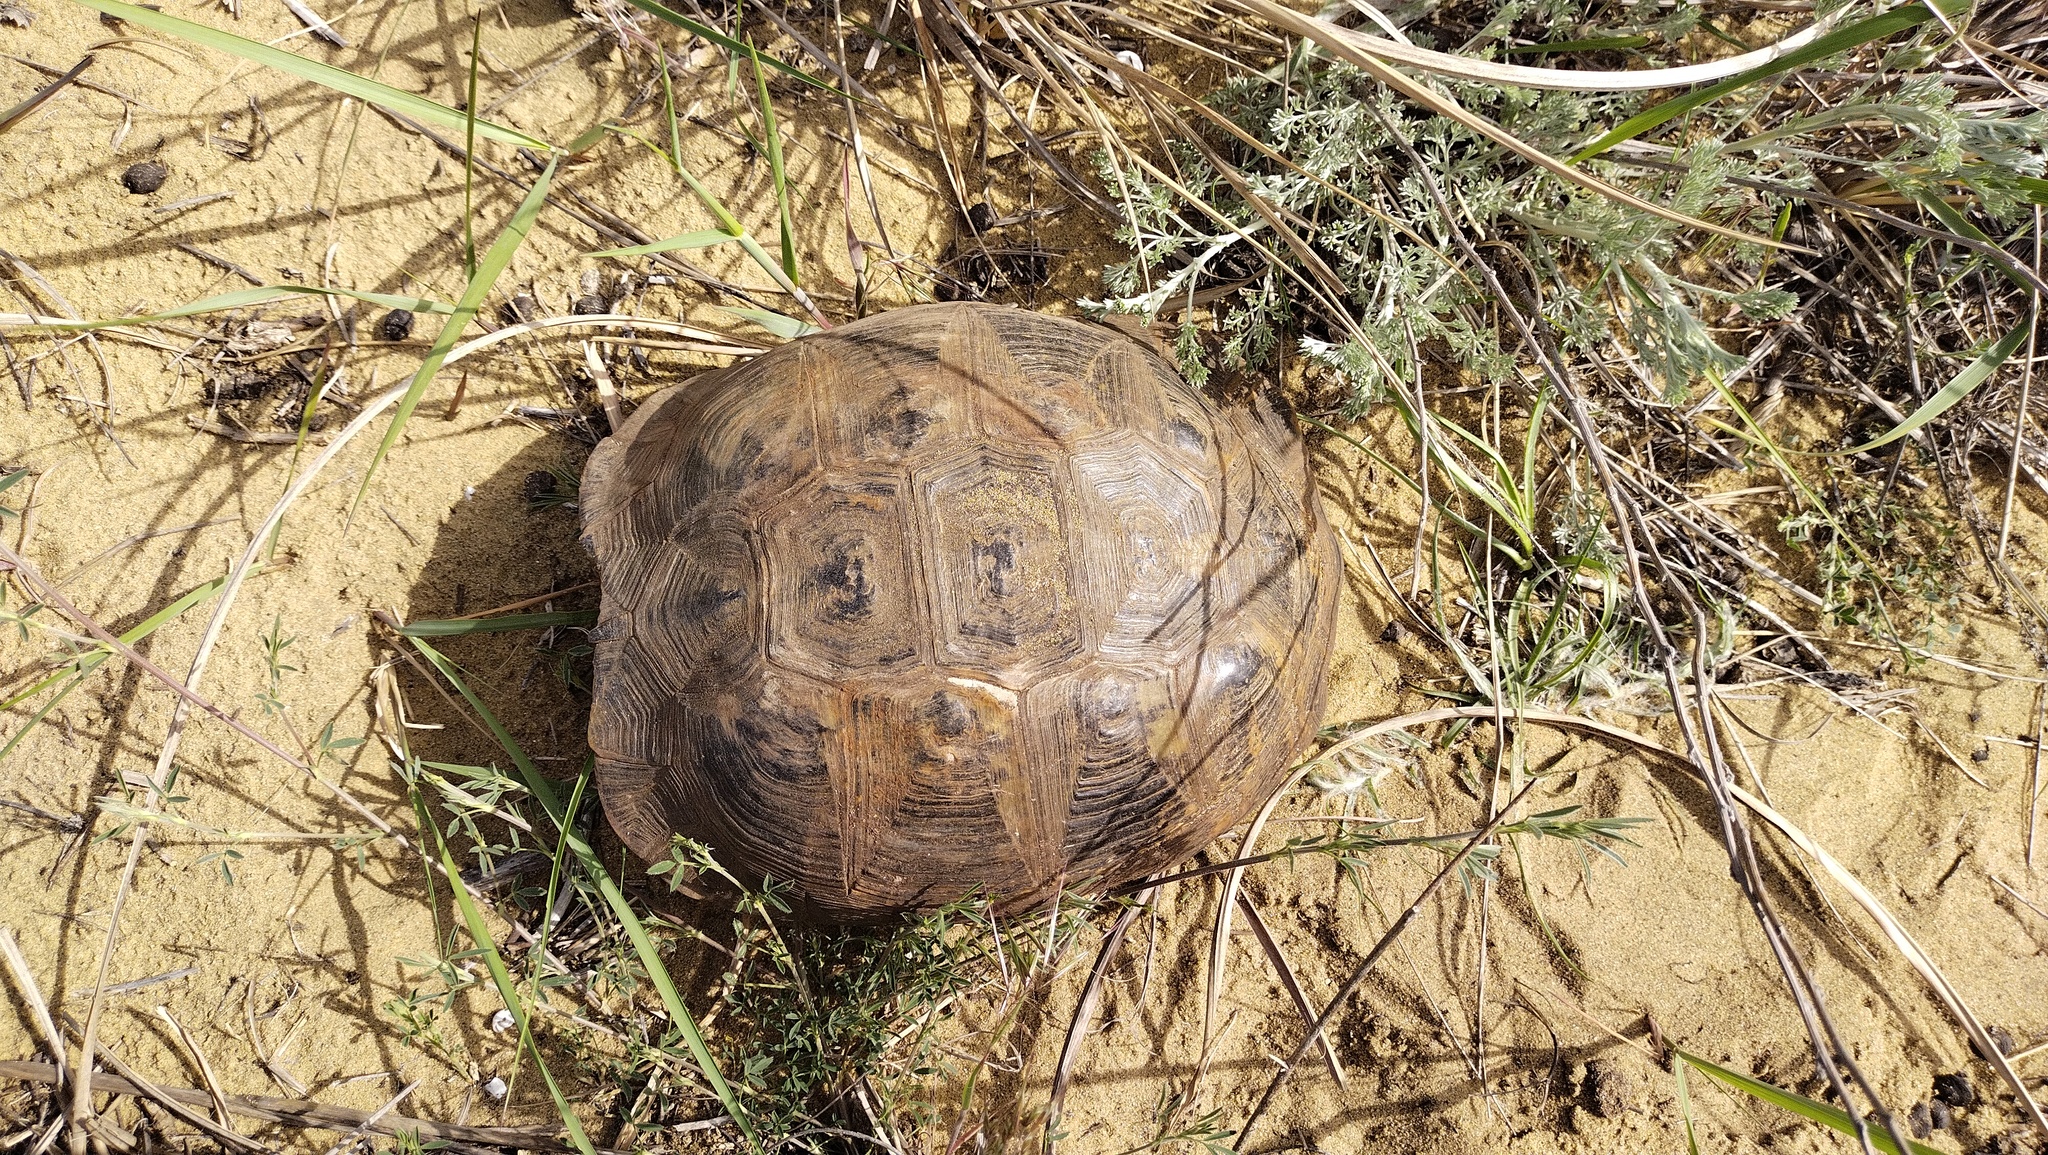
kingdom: Animalia
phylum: Chordata
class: Testudines
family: Testudinidae
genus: Testudo
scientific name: Testudo graeca
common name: Common tortoise
